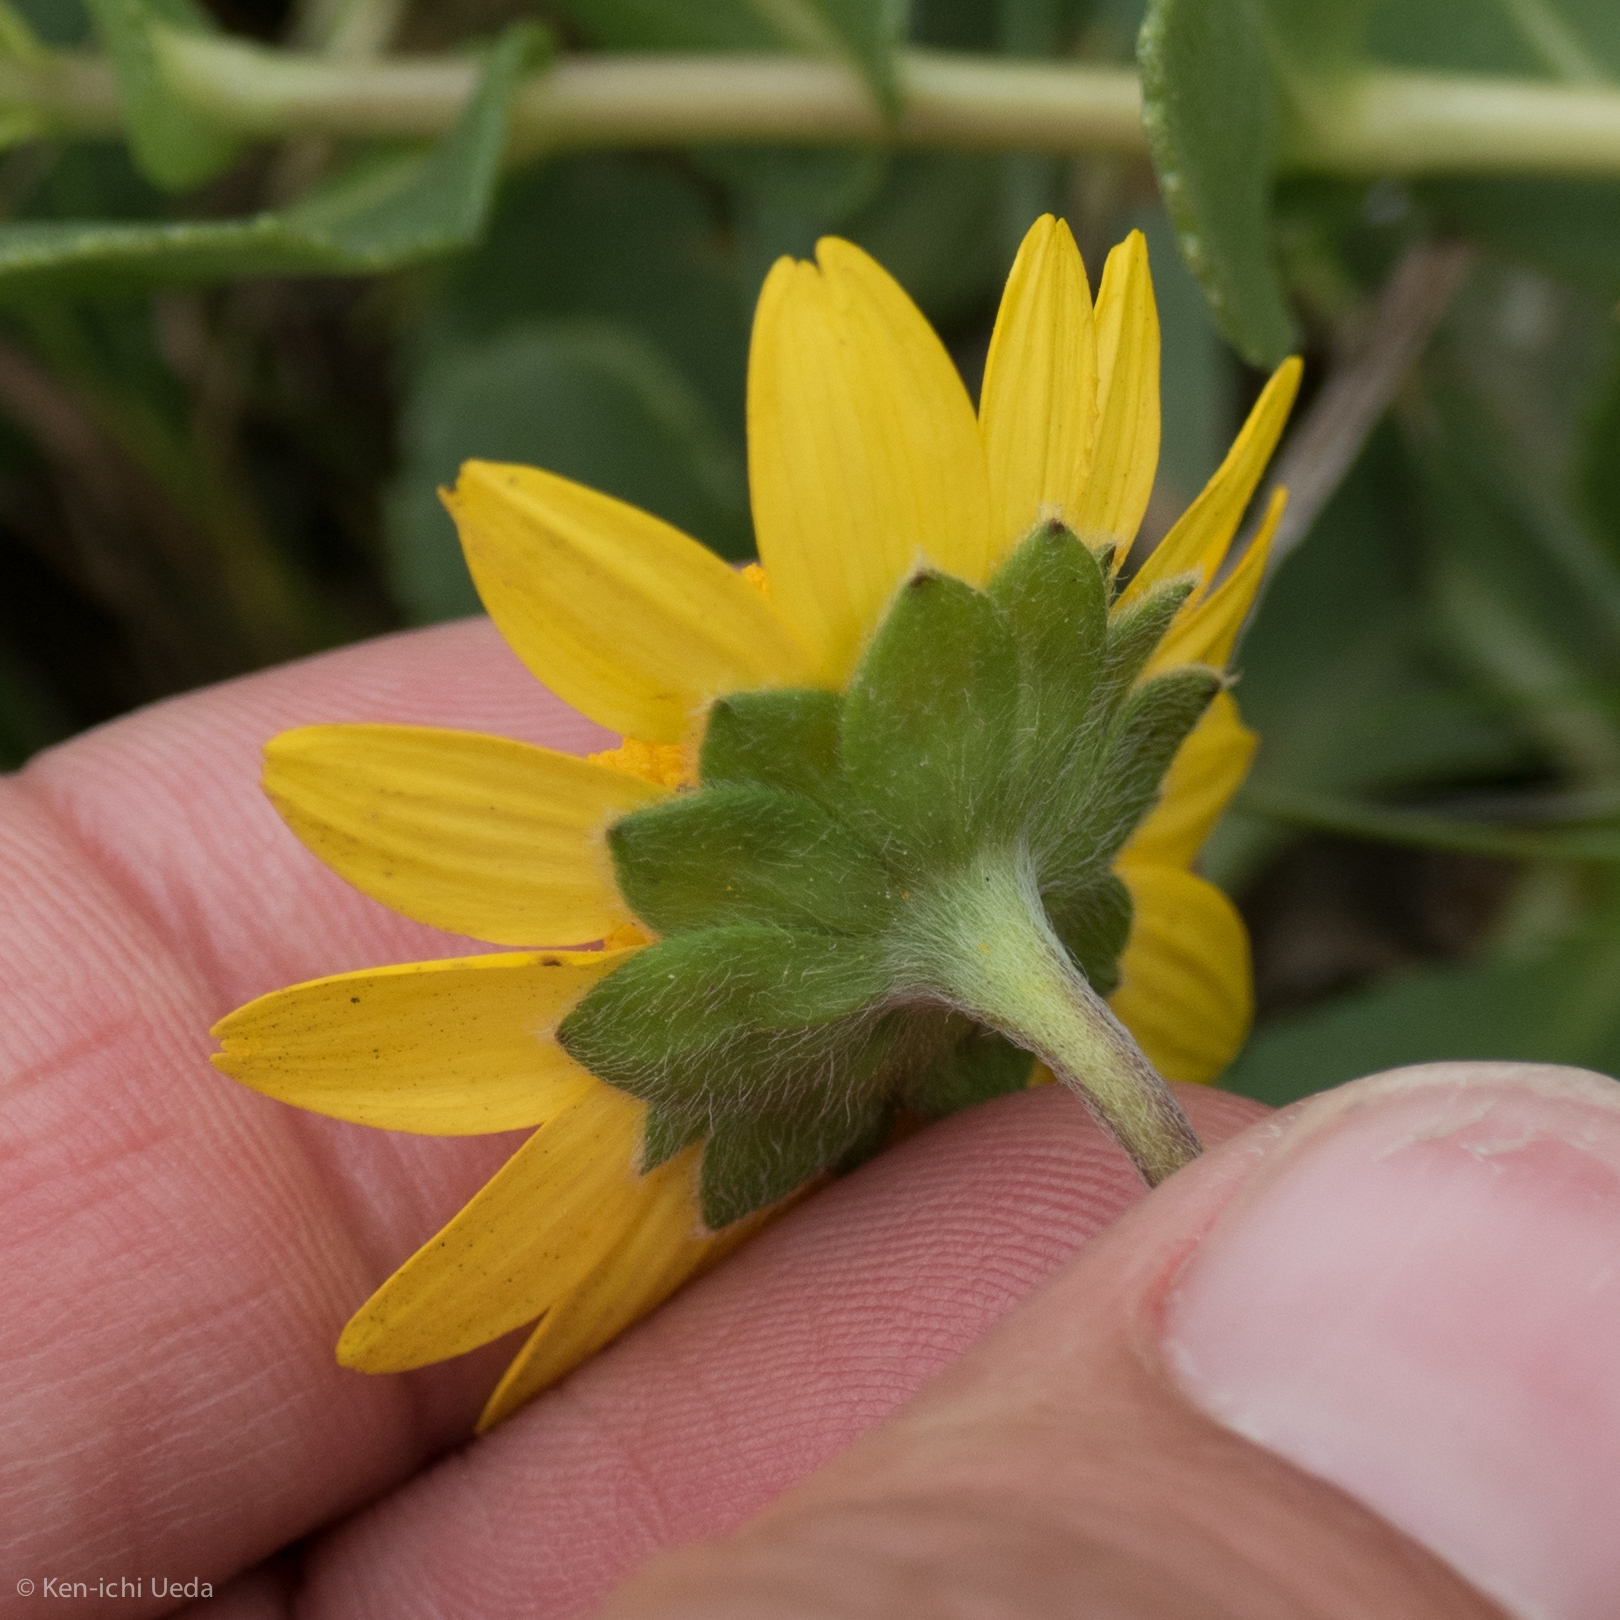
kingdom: Plantae
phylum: Tracheophyta
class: Magnoliopsida
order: Asterales
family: Asteraceae
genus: Lasthenia
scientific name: Lasthenia californica
